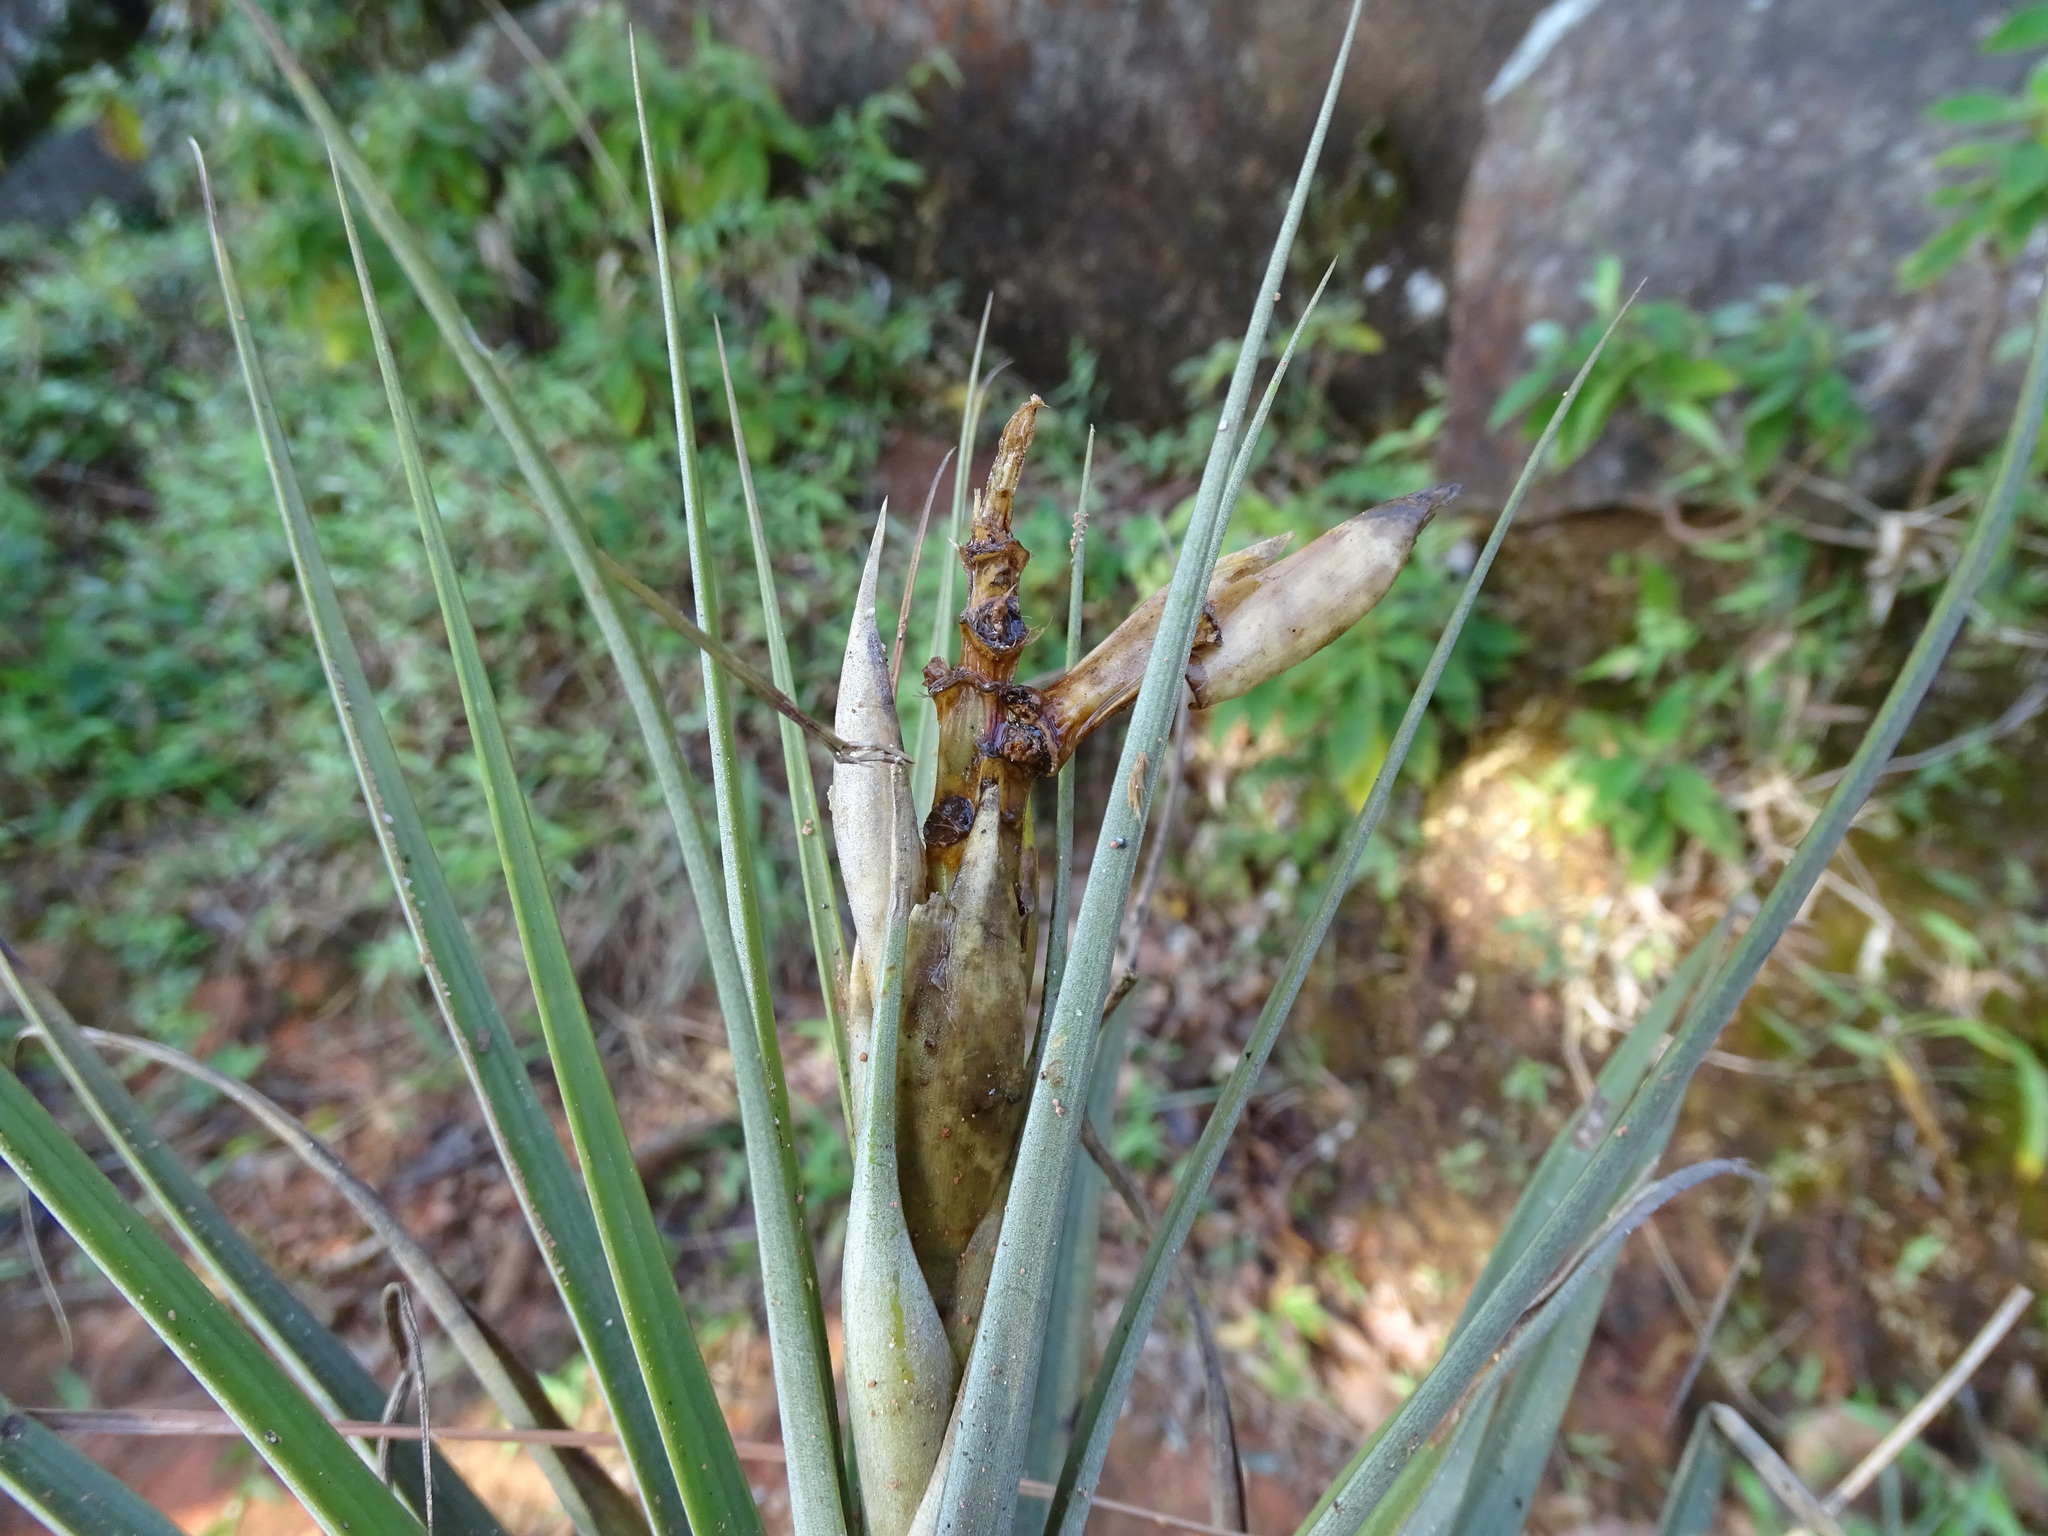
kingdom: Plantae
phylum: Tracheophyta
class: Liliopsida
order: Poales
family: Bromeliaceae
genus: Tillandsia
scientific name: Tillandsia fasciculata
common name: Giant airplant
